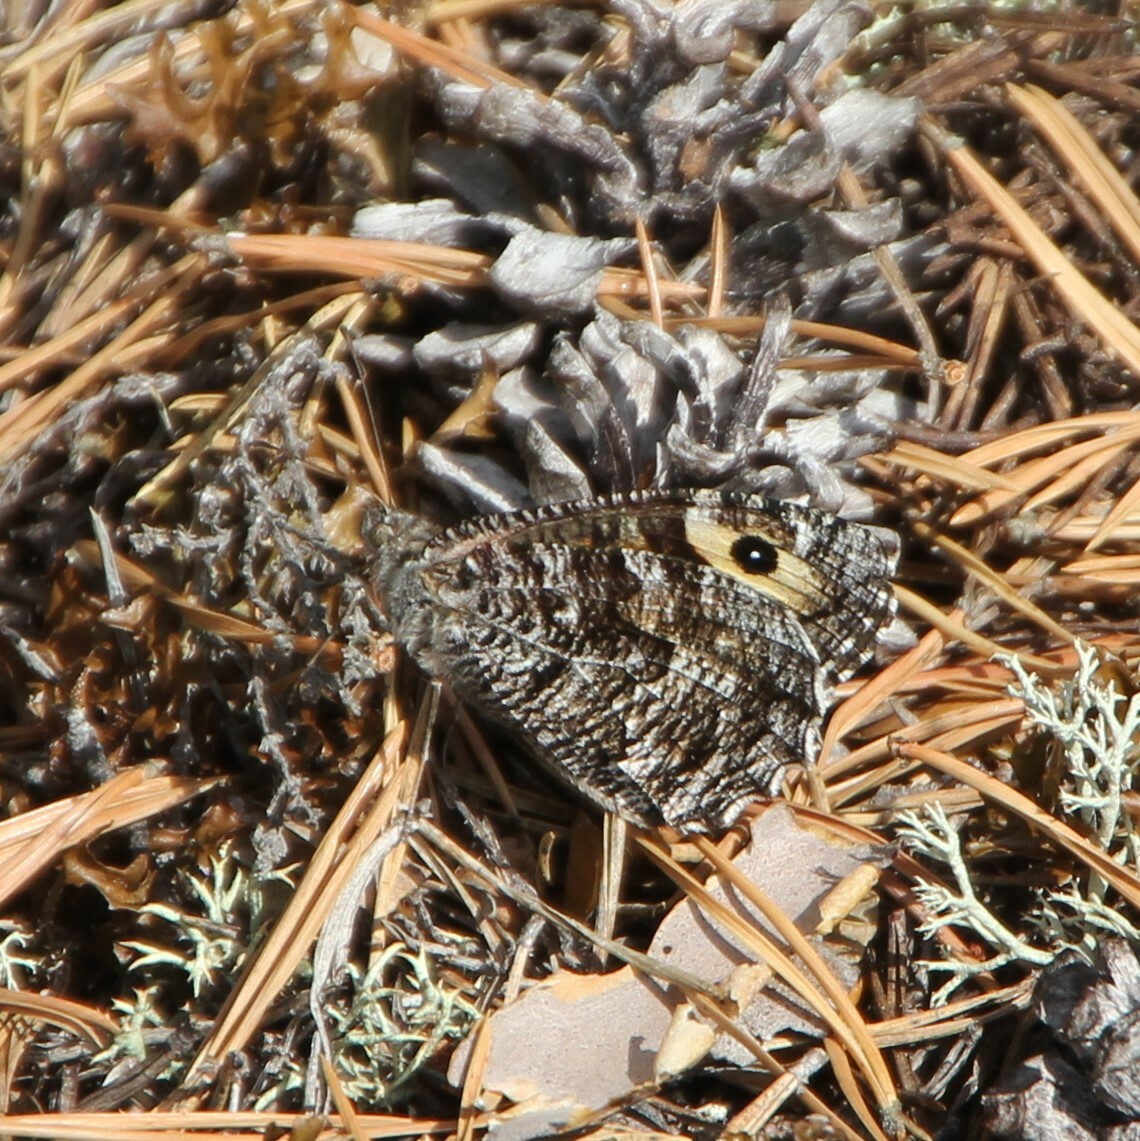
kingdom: Animalia
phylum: Arthropoda
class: Insecta
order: Lepidoptera
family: Nymphalidae
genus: Hipparchia
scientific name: Hipparchia semele
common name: Grayling
